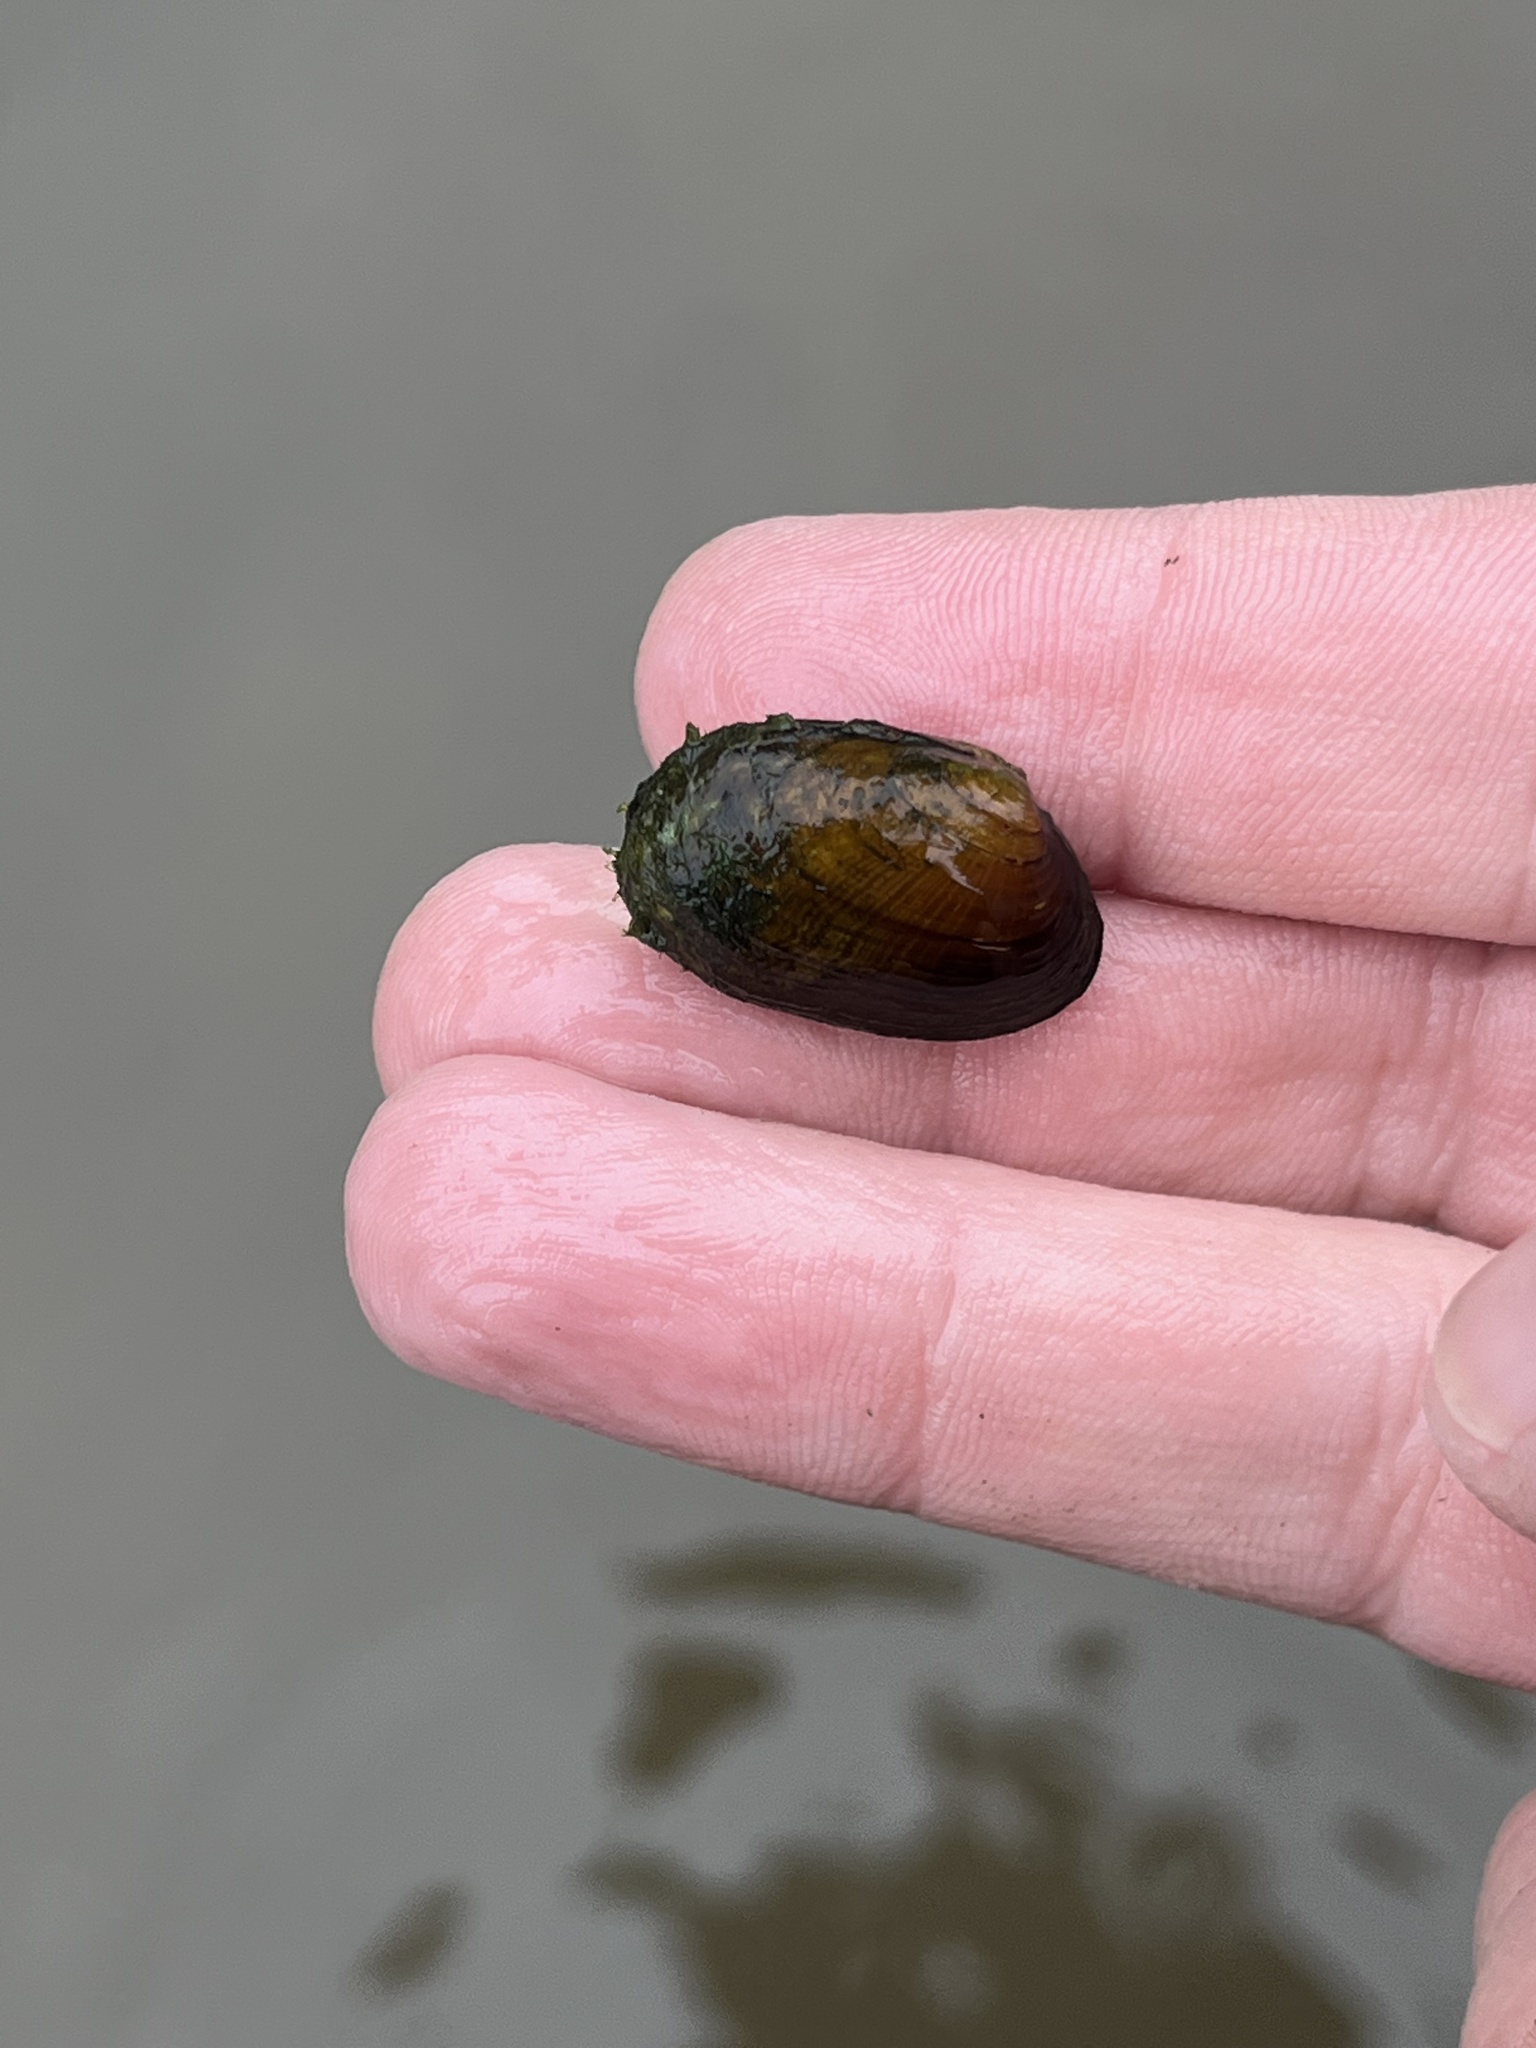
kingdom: Animalia
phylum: Mollusca
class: Bivalvia
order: Unionida
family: Unionidae
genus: Paetulunio
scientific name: Paetulunio fabalis
